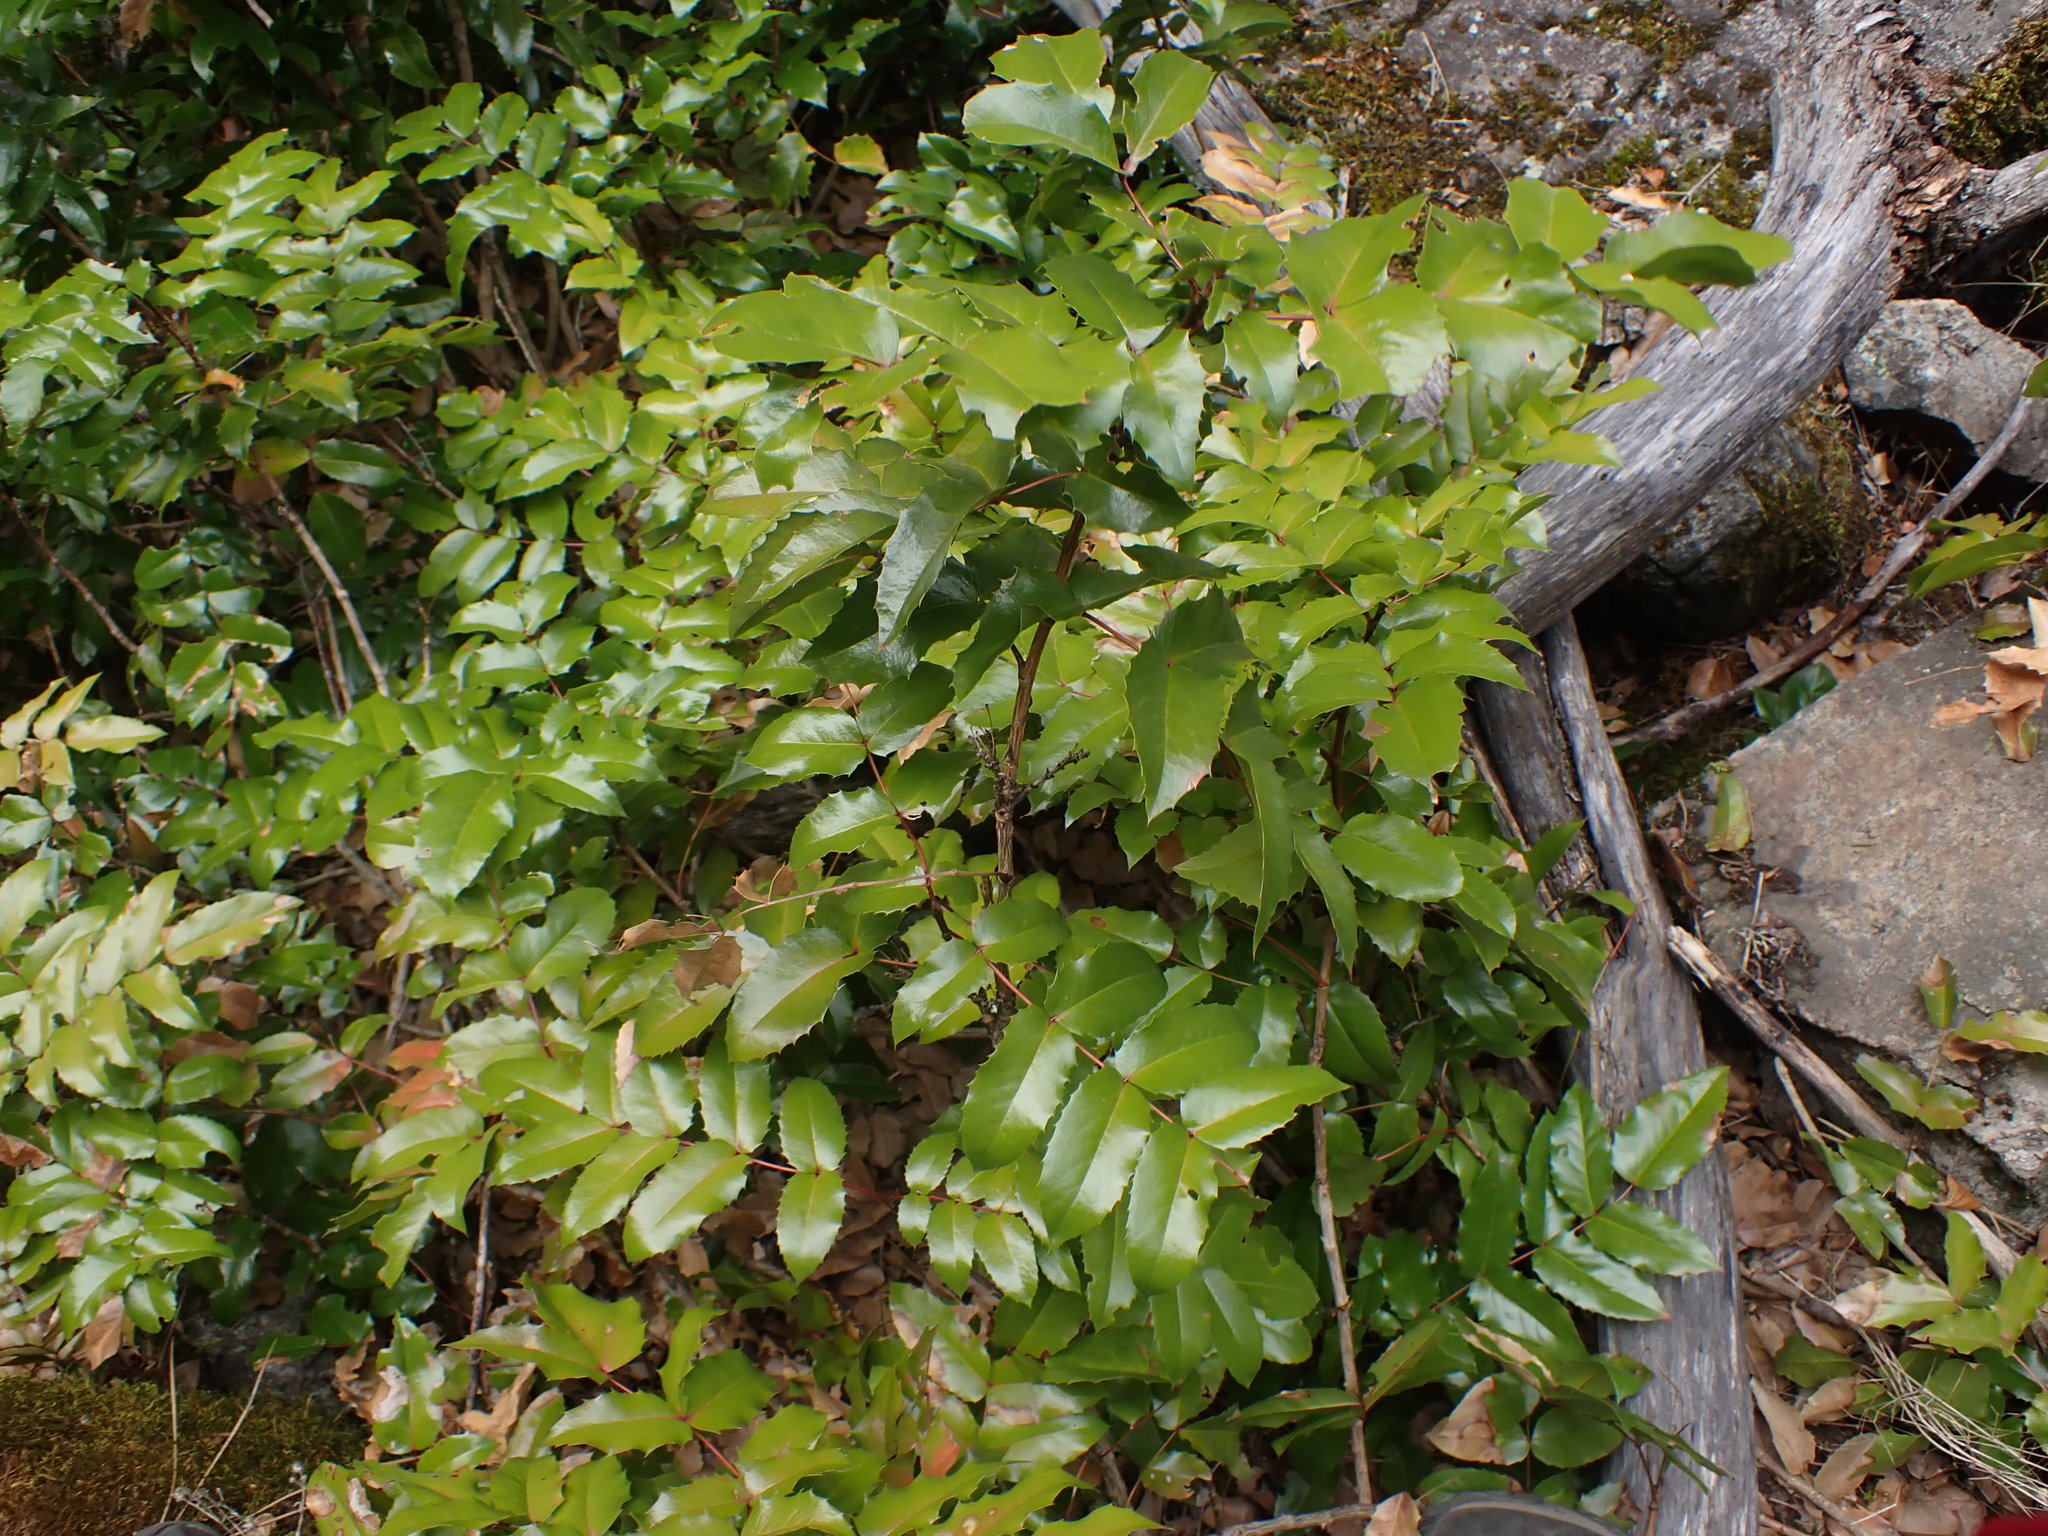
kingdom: Plantae
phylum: Tracheophyta
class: Magnoliopsida
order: Ranunculales
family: Berberidaceae
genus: Mahonia
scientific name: Mahonia aquifolium
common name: Oregon-grape
